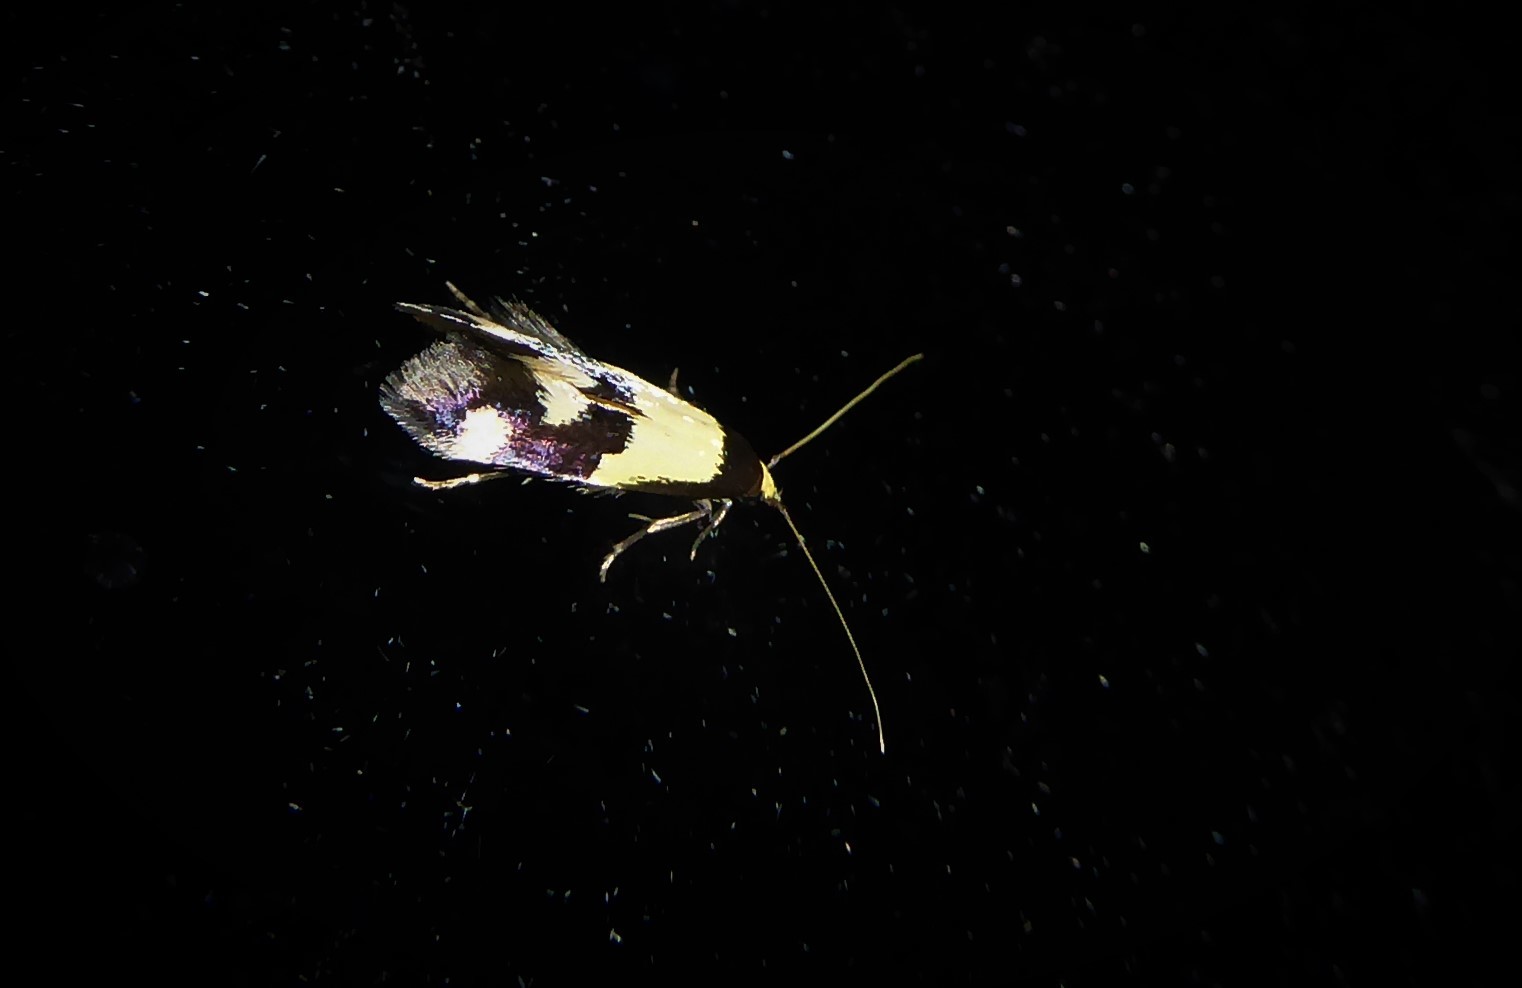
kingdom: Animalia
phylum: Arthropoda
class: Insecta
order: Lepidoptera
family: Tineidae
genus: Opogona
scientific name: Opogona comptella
